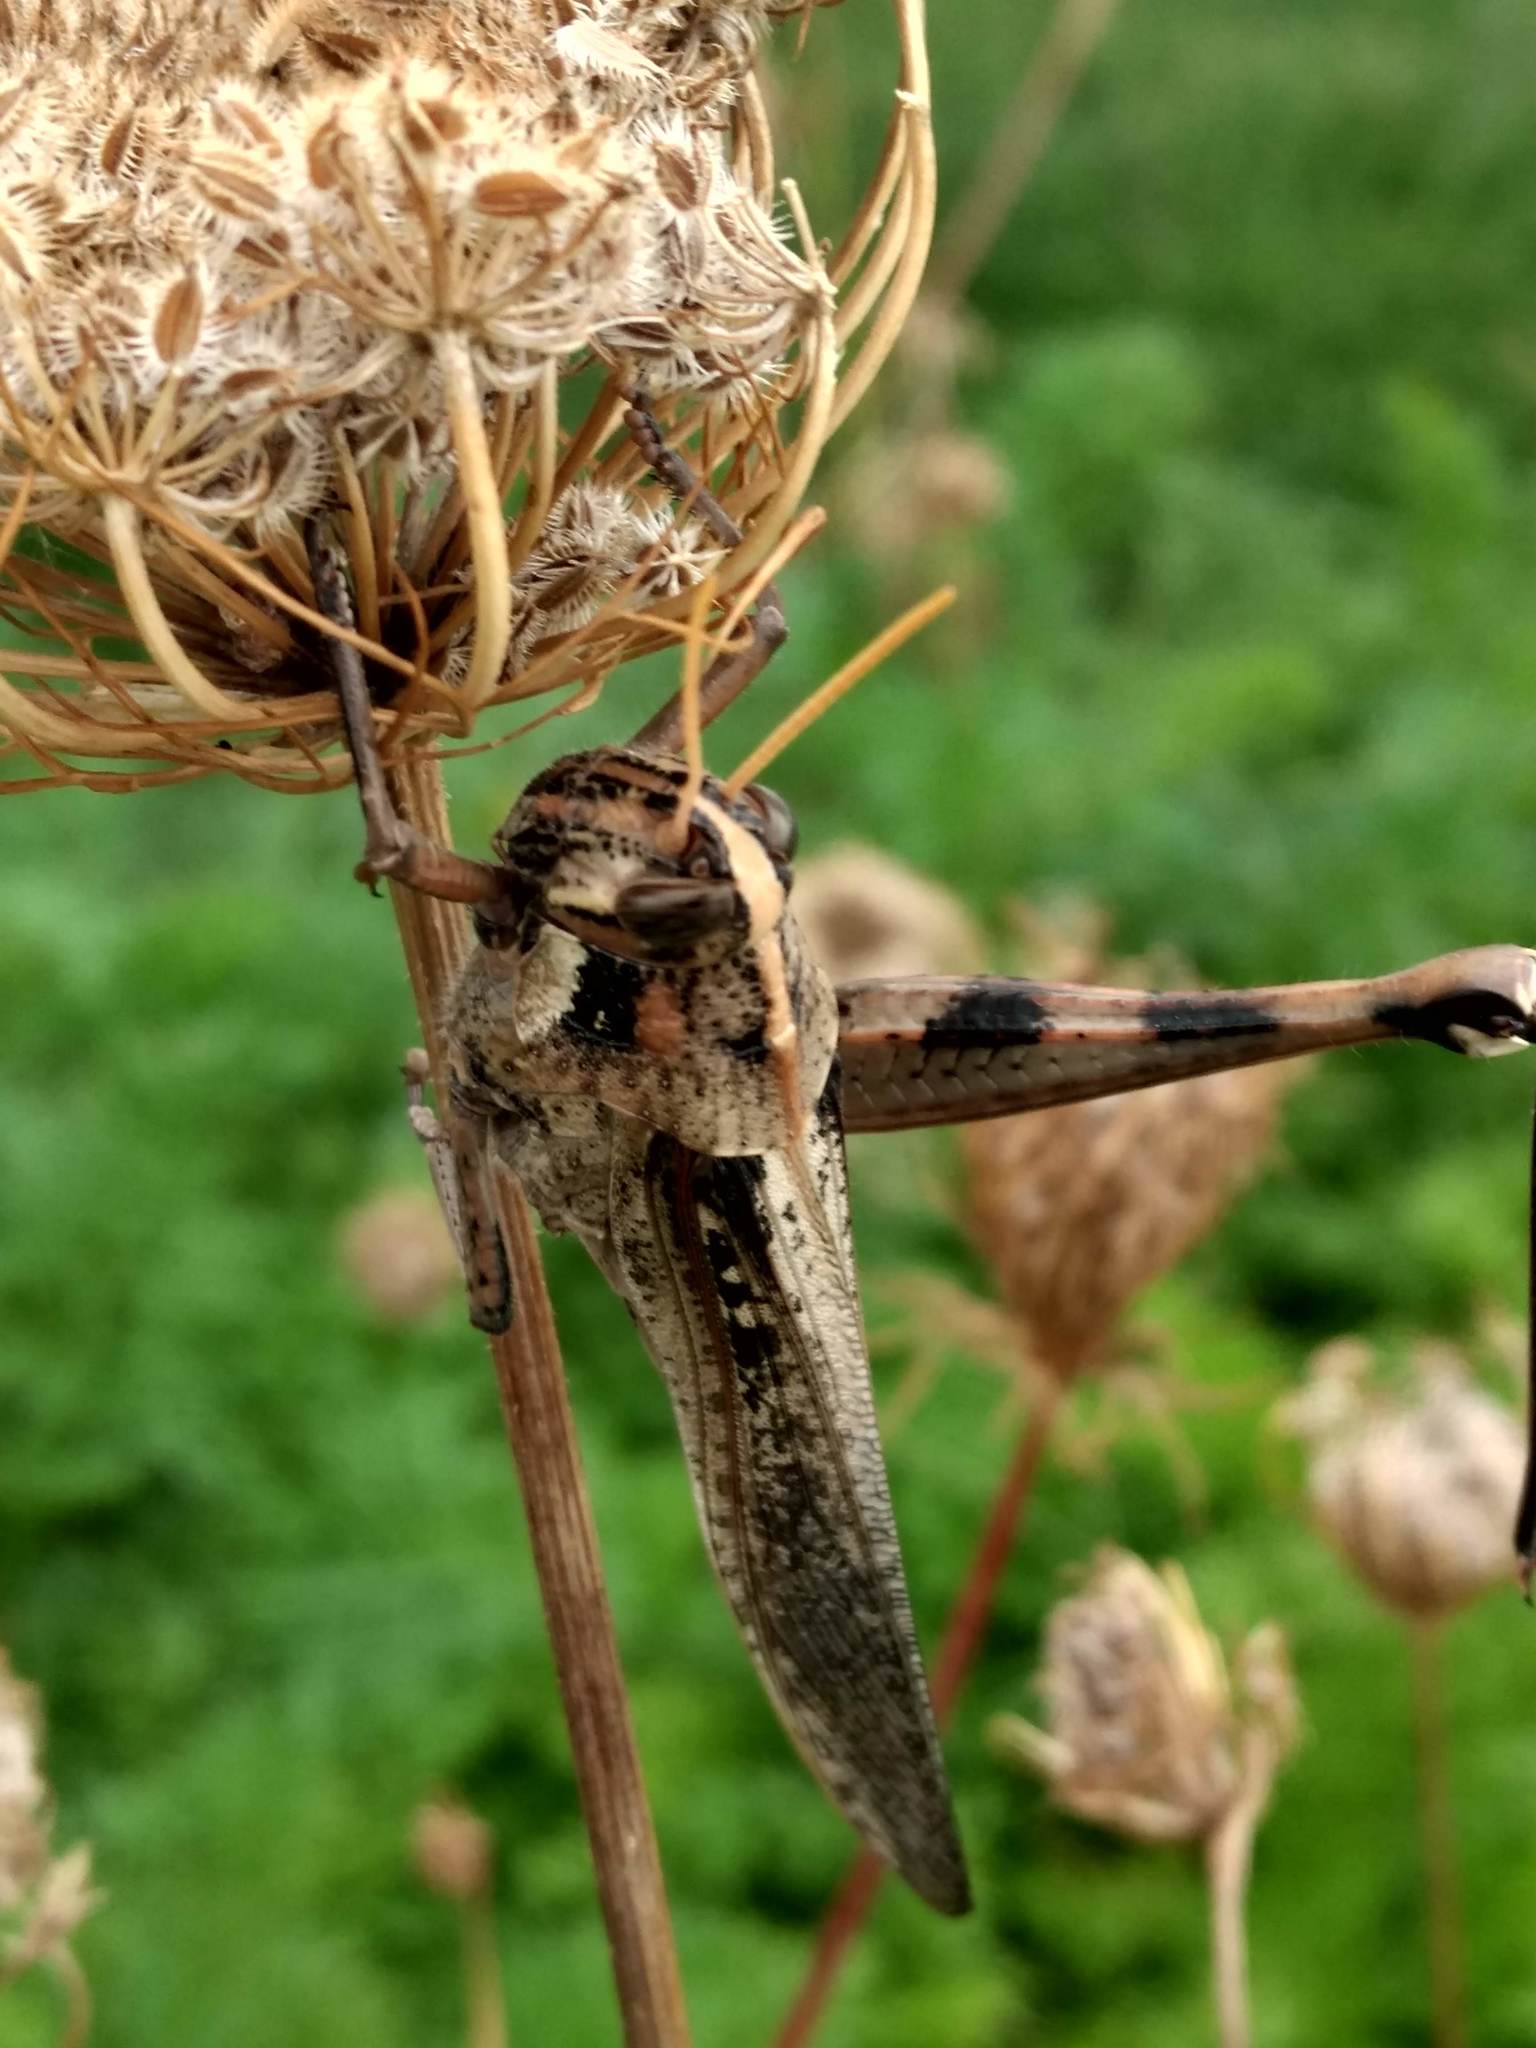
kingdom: Animalia
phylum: Arthropoda
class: Insecta
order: Orthoptera
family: Acrididae
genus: Schistocerca
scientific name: Schistocerca nitens
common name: Vagrant grasshopper
